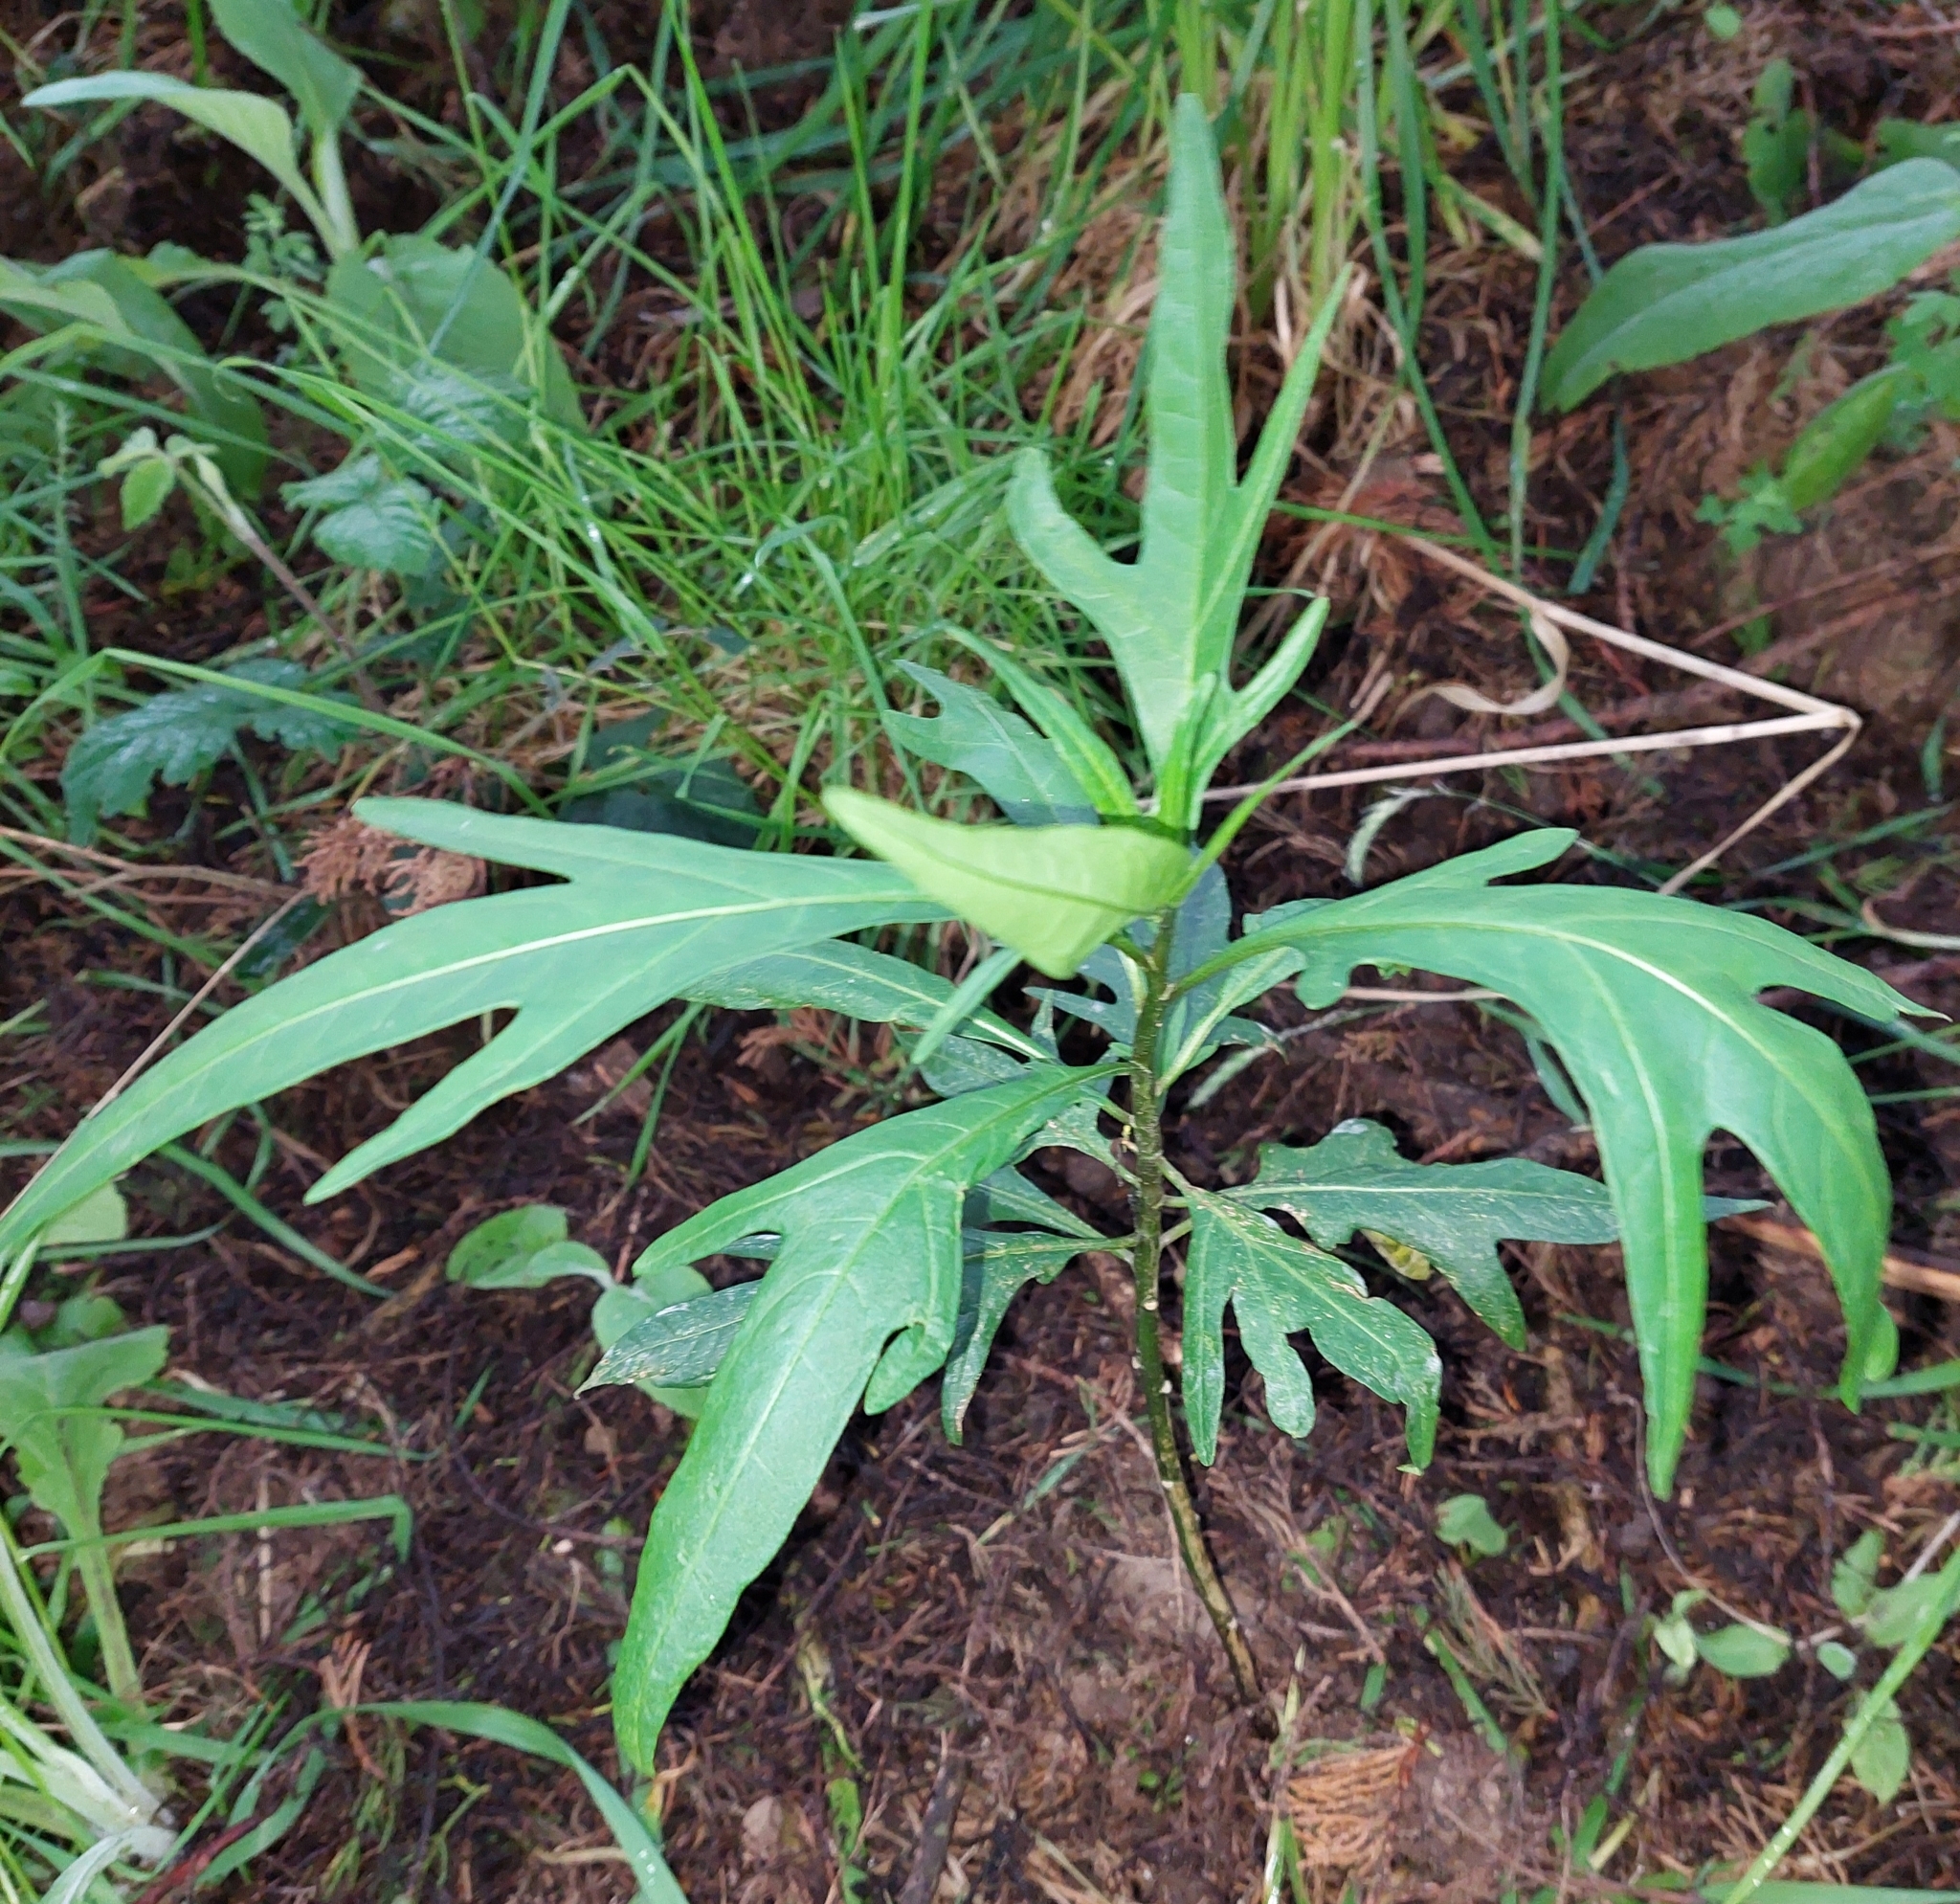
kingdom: Plantae
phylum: Tracheophyta
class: Magnoliopsida
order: Solanales
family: Solanaceae
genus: Solanum
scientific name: Solanum laciniatum
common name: Kangaroo-apple
